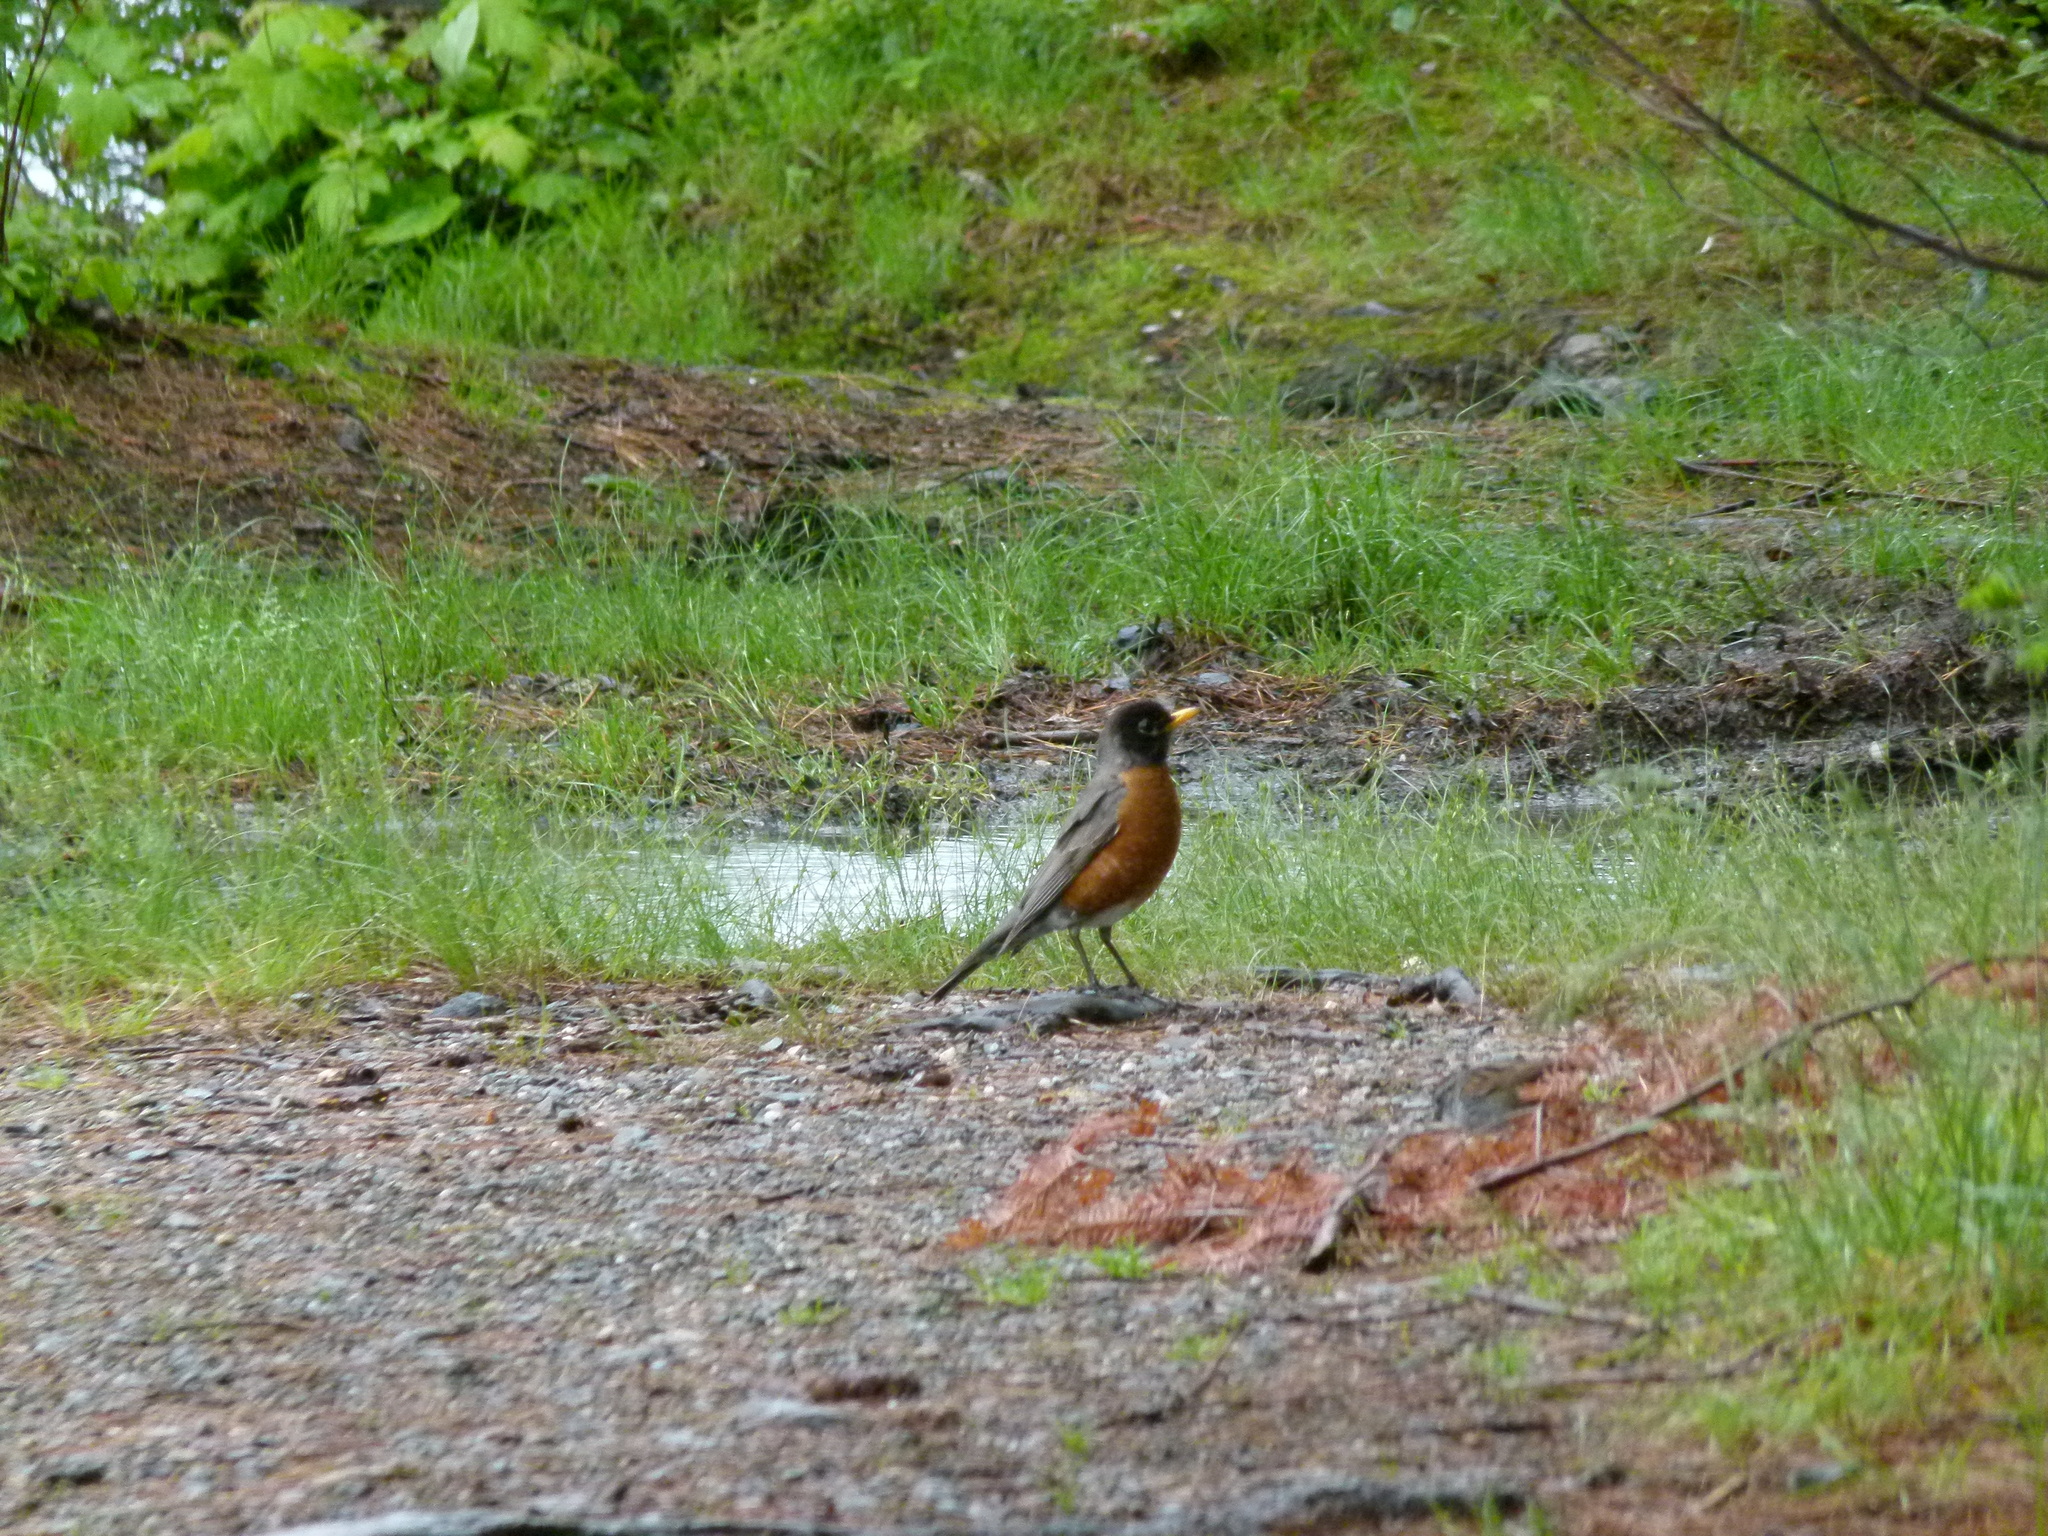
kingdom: Animalia
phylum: Chordata
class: Aves
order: Passeriformes
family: Turdidae
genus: Turdus
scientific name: Turdus migratorius
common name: American robin
